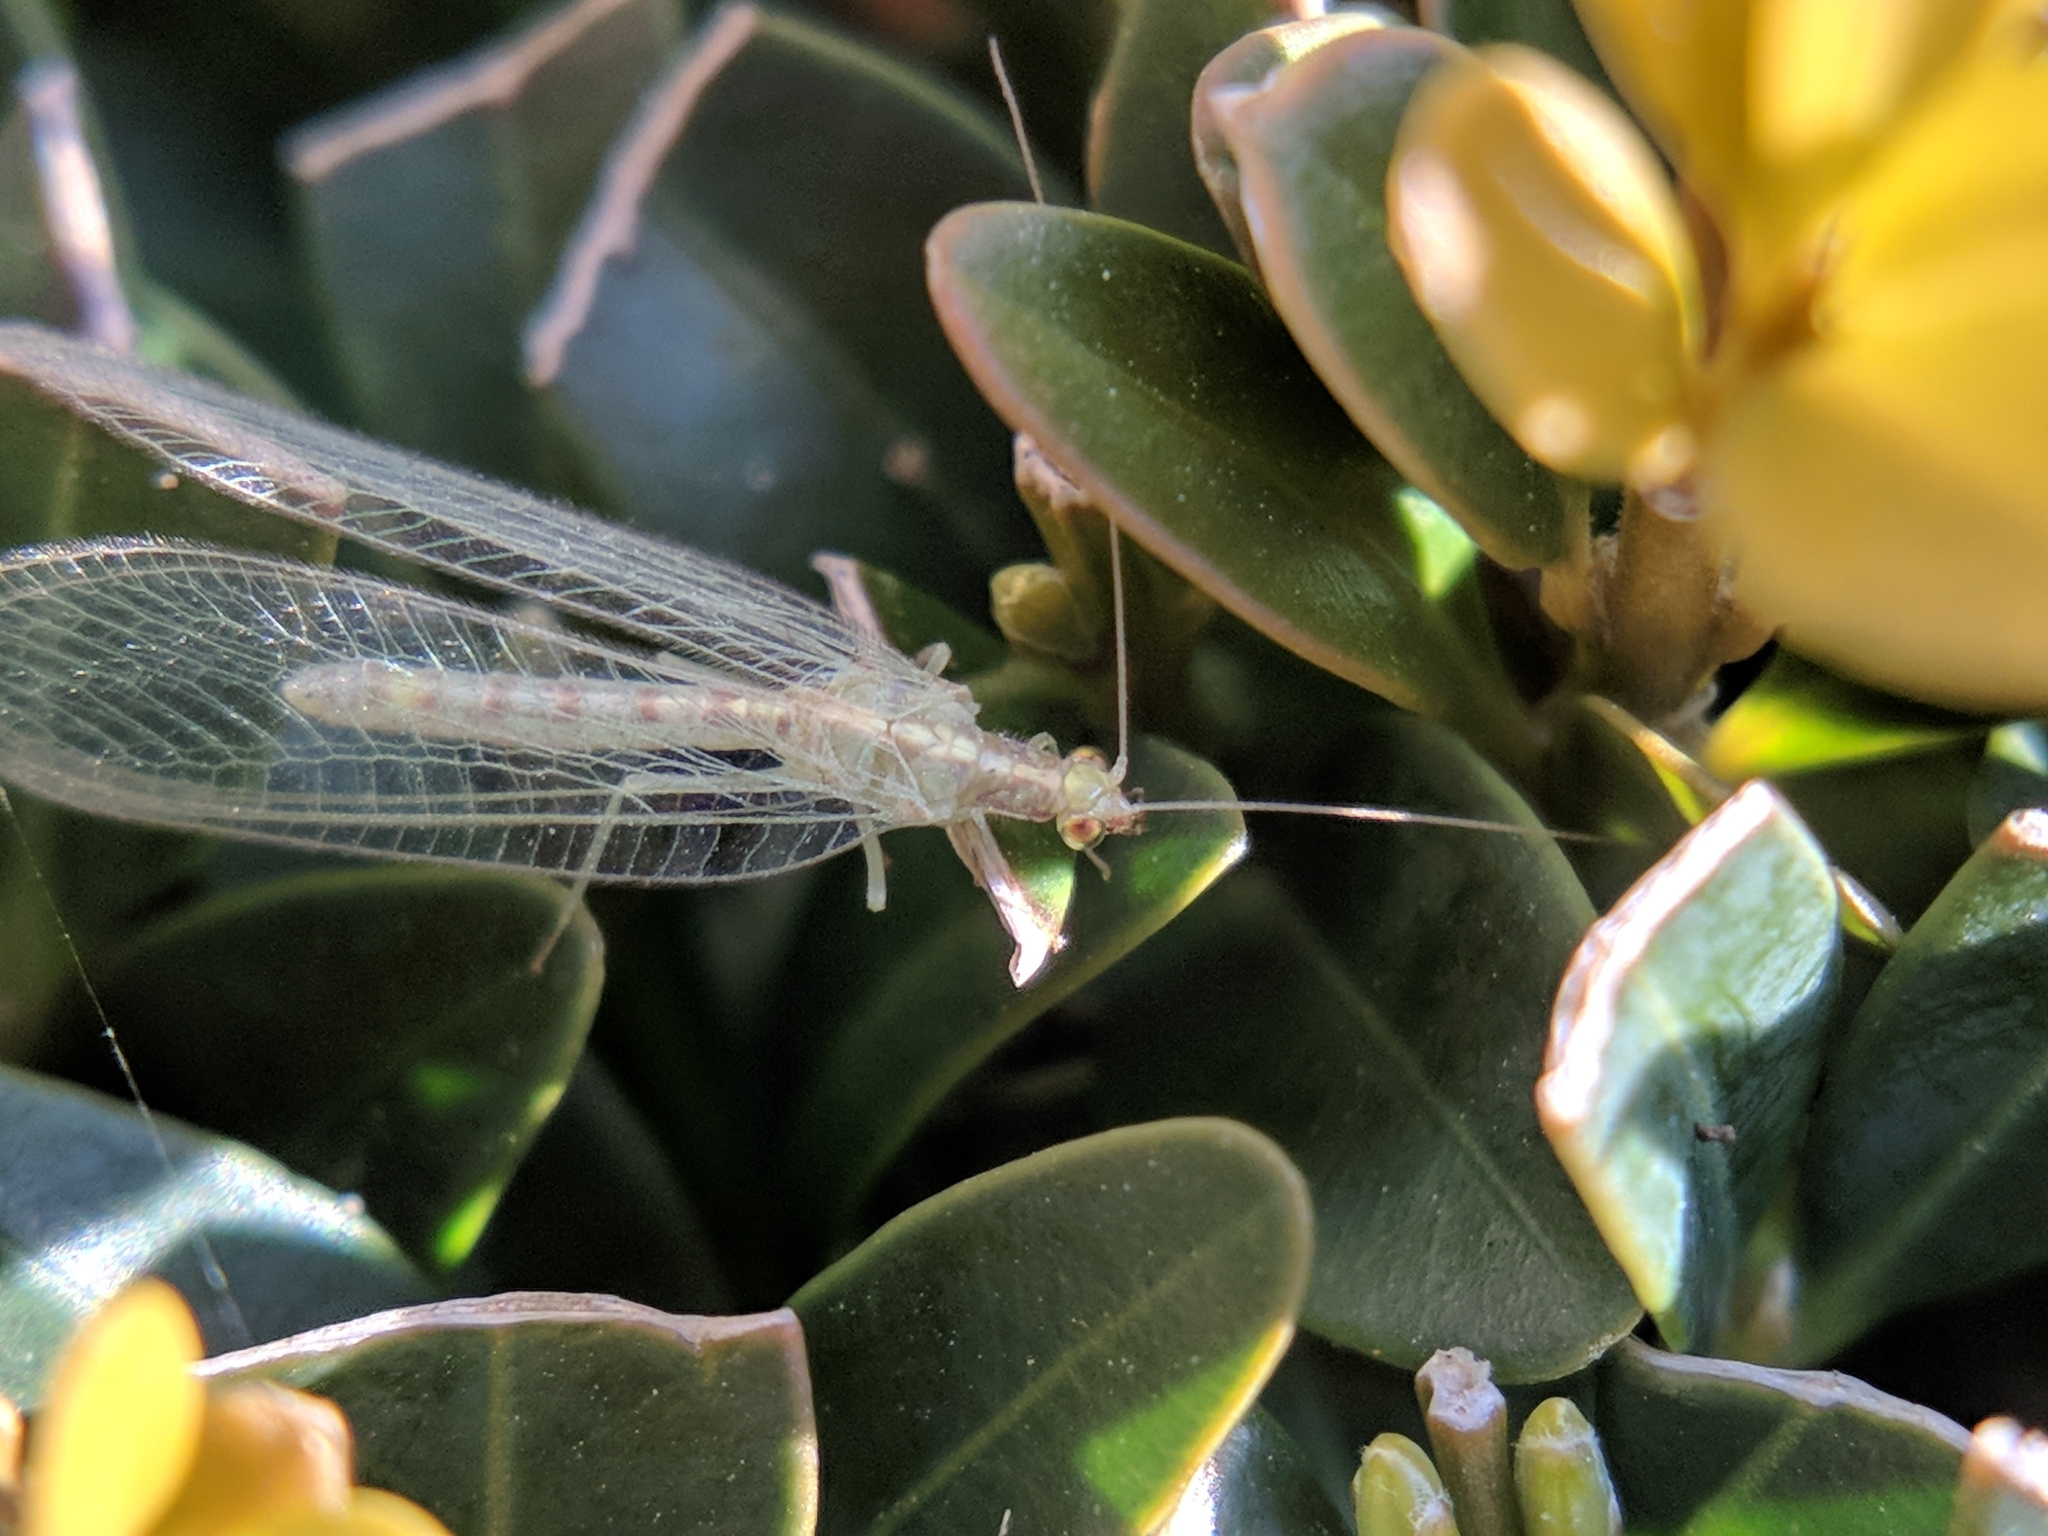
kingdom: Animalia
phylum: Arthropoda
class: Insecta
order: Neuroptera
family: Chrysopidae
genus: Chrysoperla
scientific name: Chrysoperla
